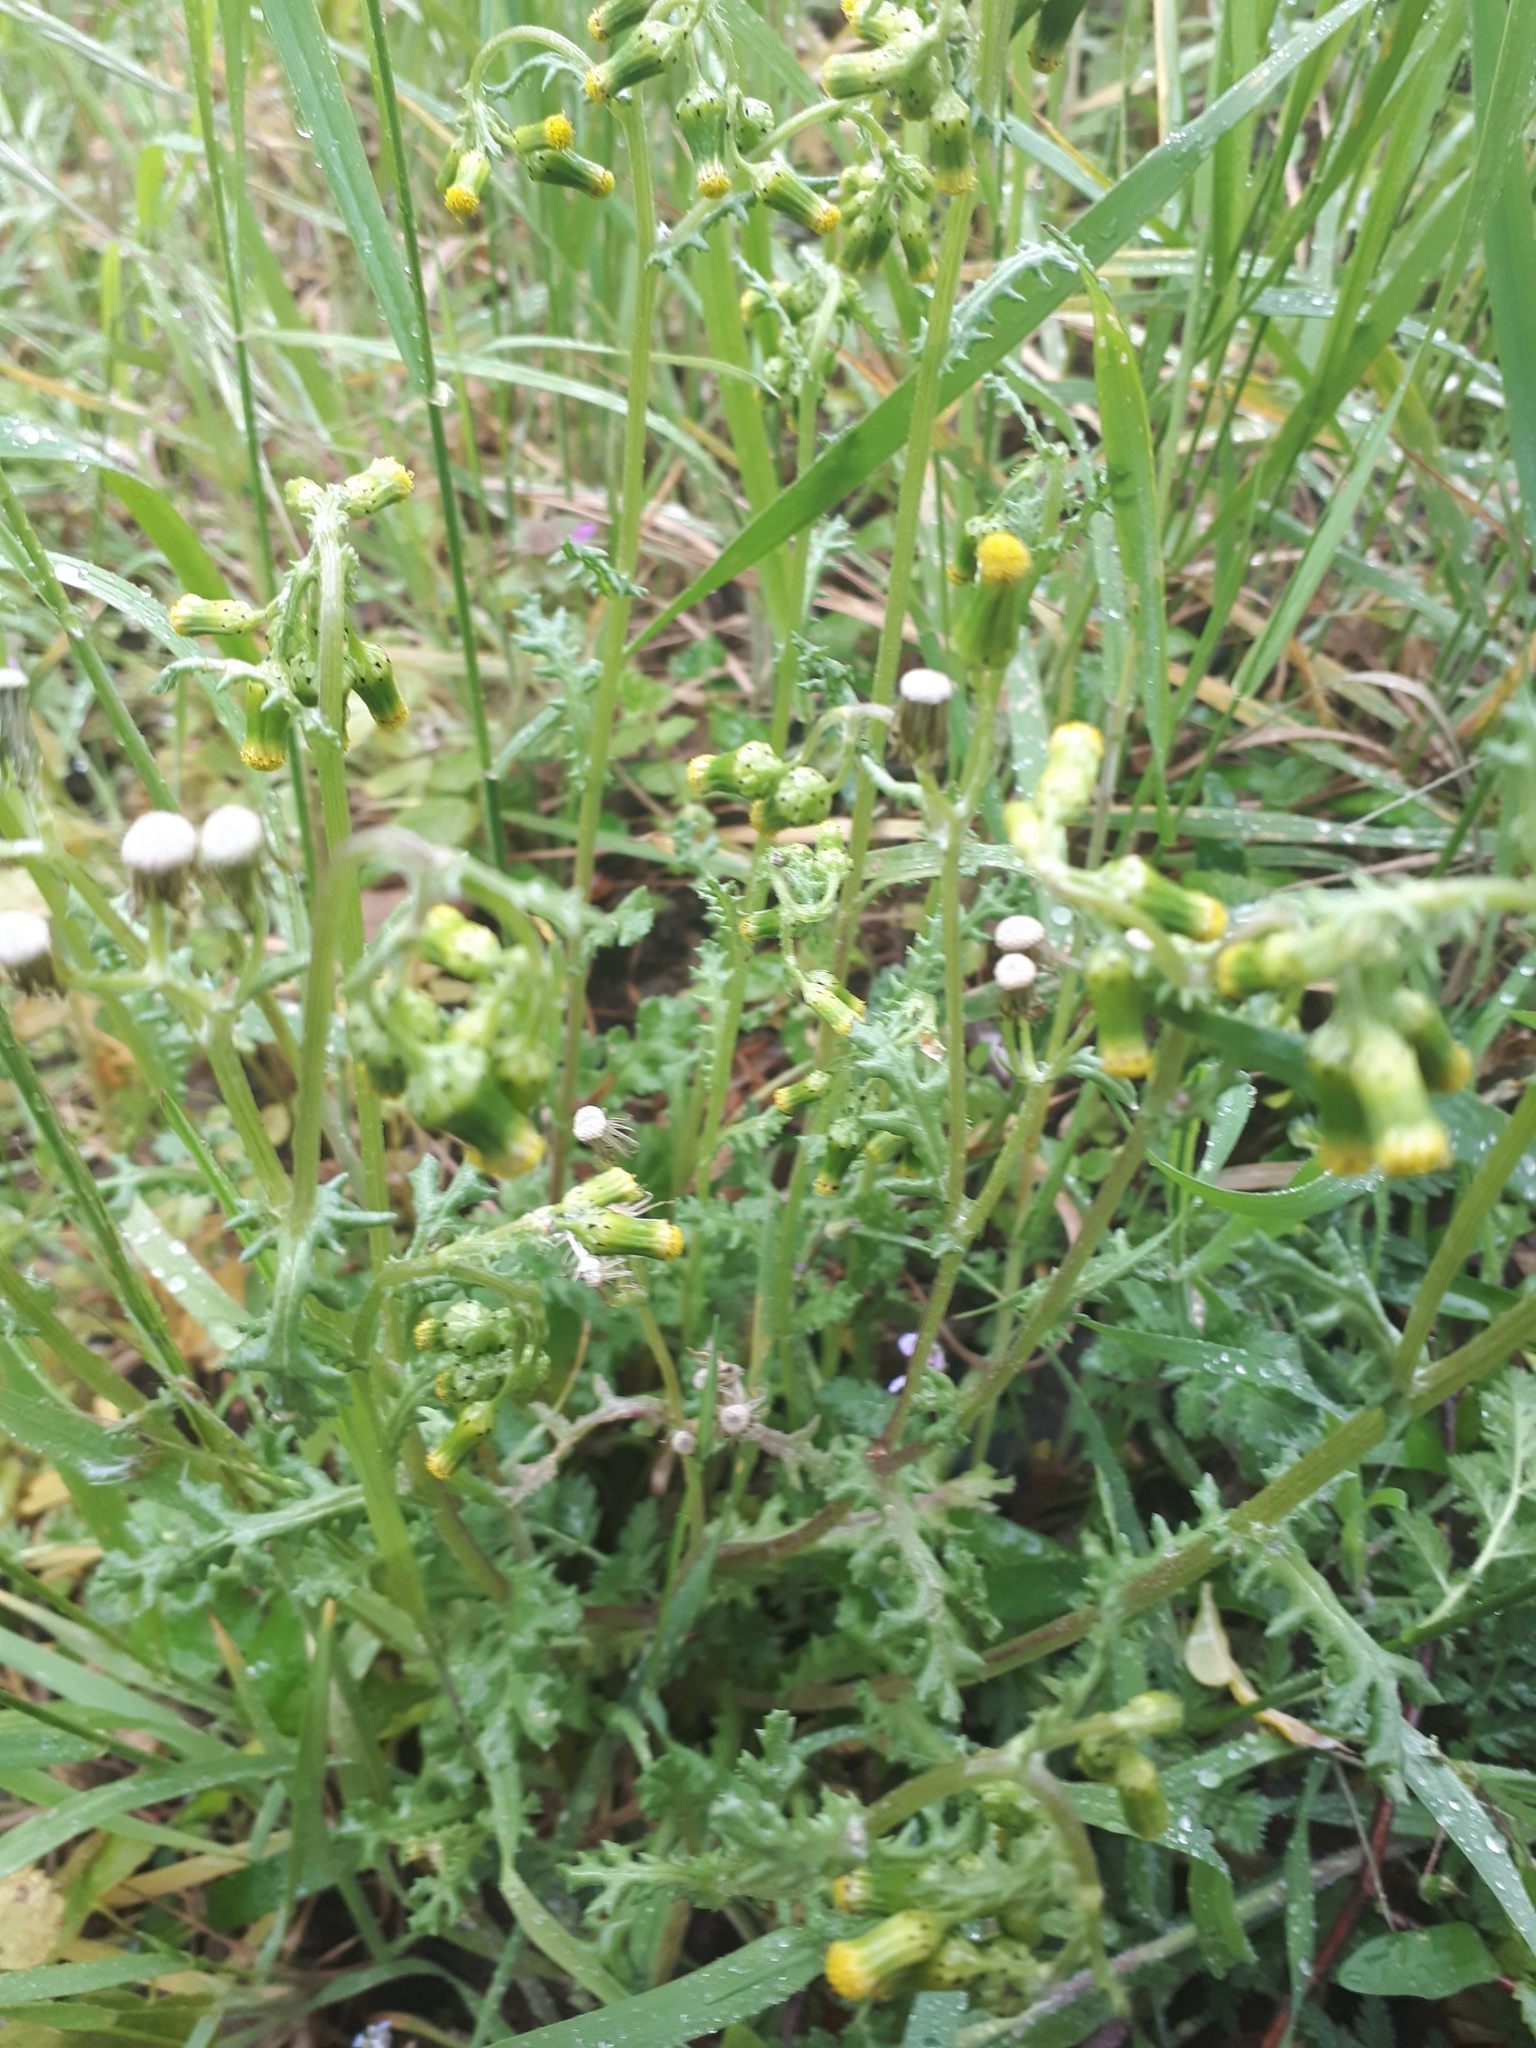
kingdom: Plantae
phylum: Tracheophyta
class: Magnoliopsida
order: Asterales
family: Asteraceae
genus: Senecio
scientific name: Senecio vulgaris
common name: Old-man-in-the-spring
